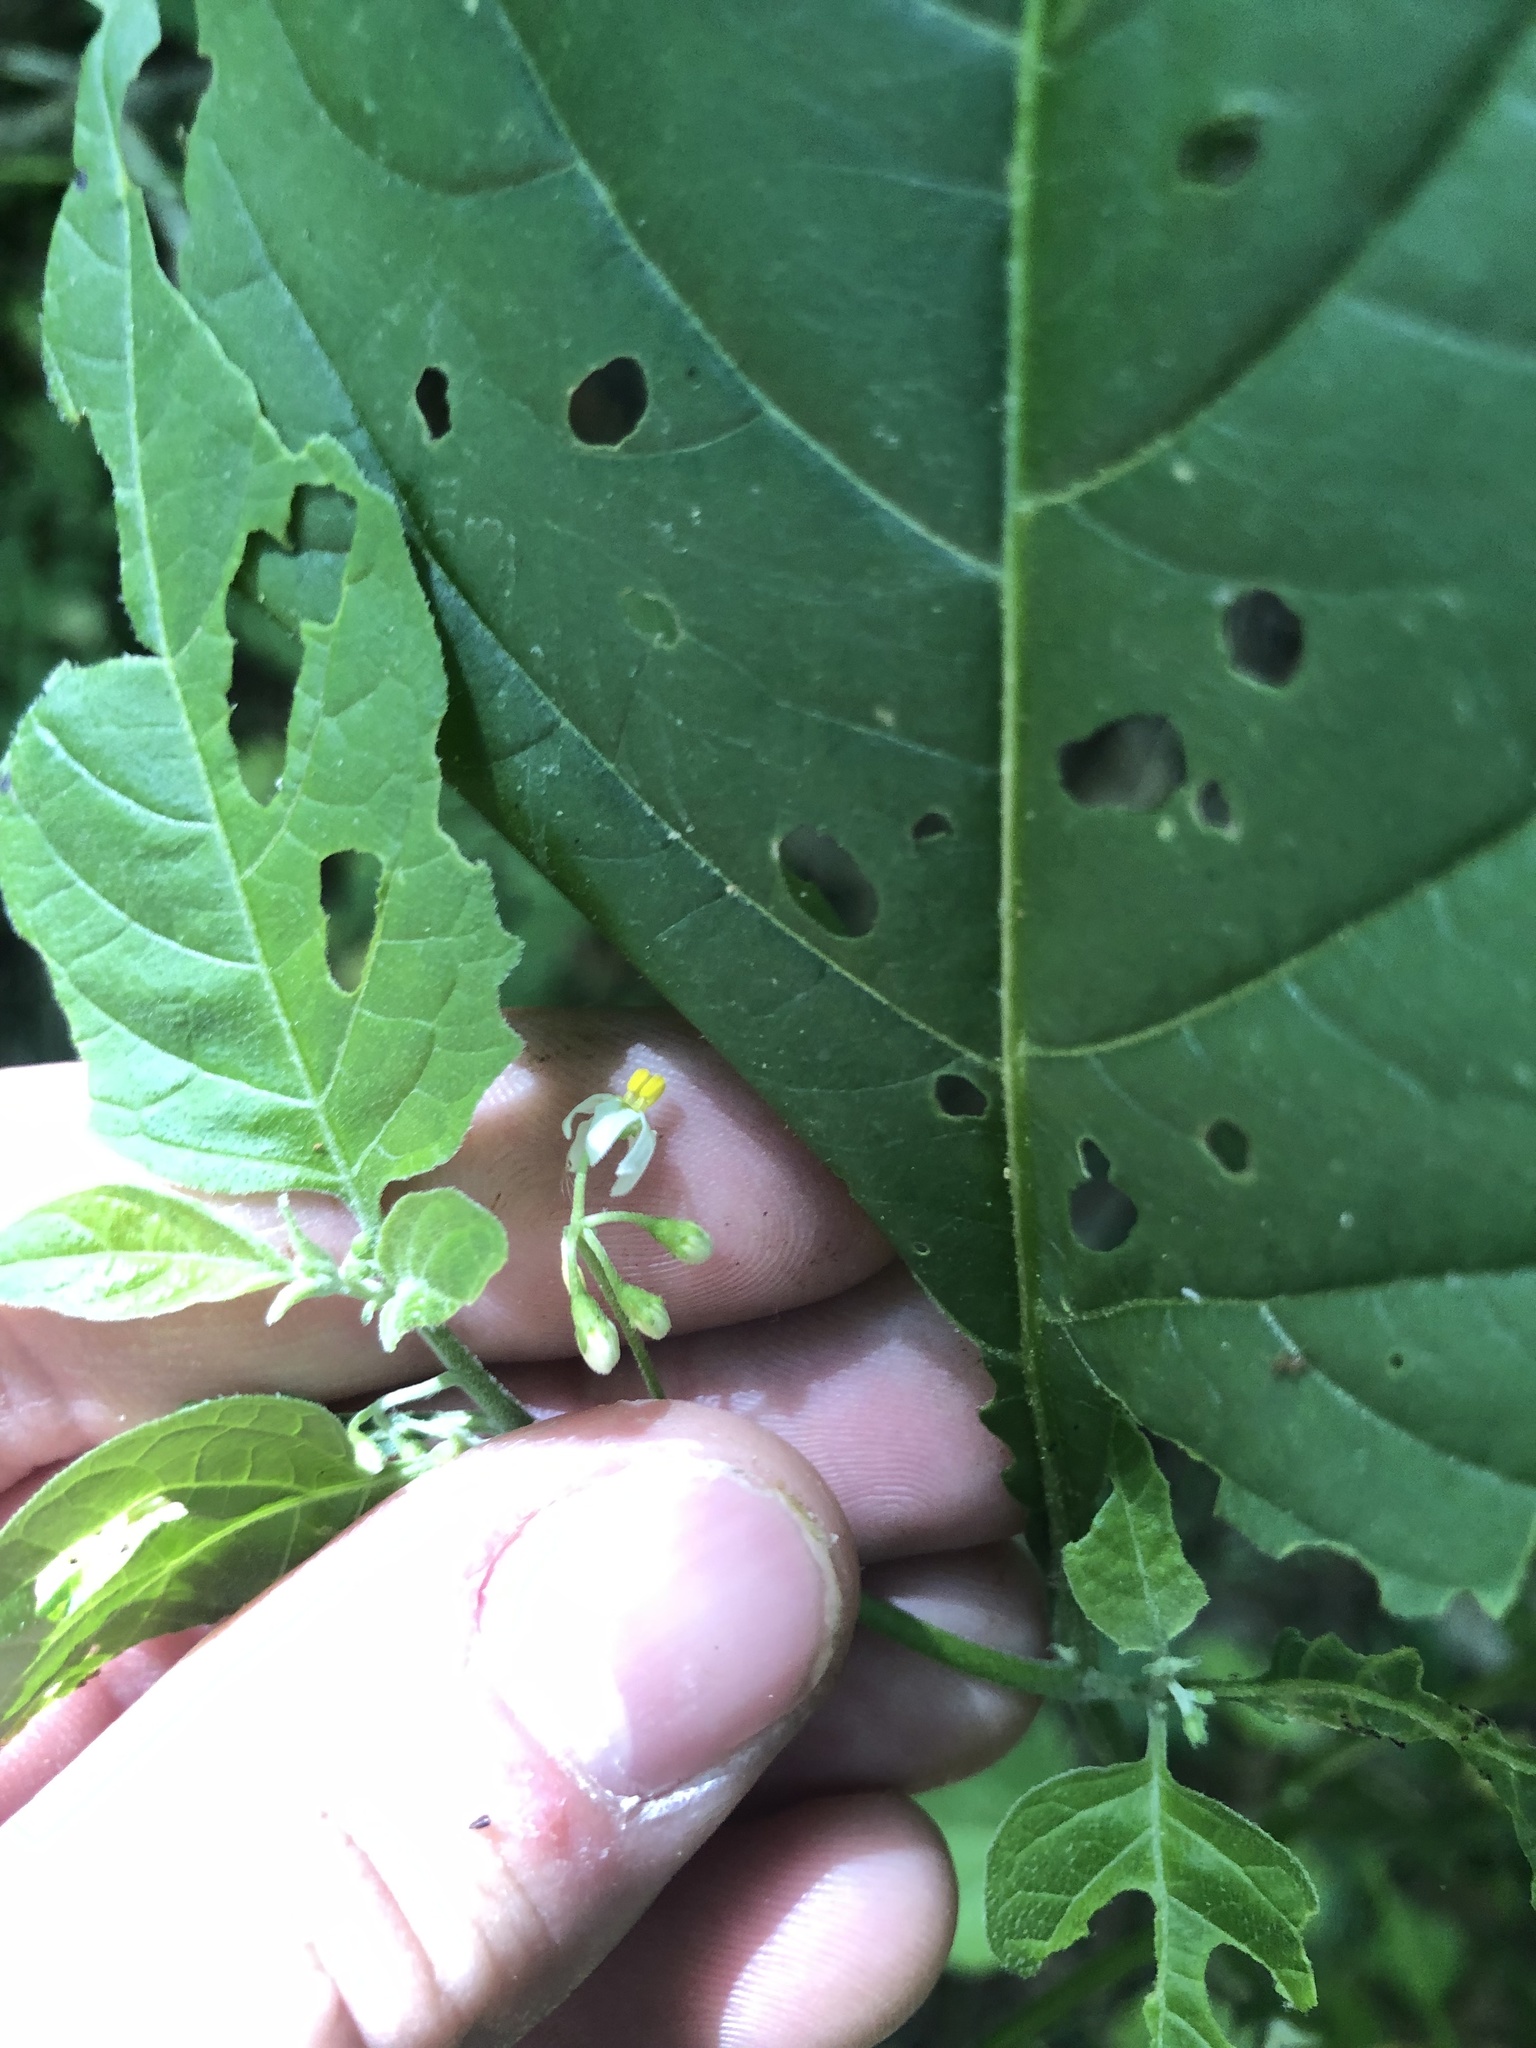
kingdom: Plantae
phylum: Tracheophyta
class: Magnoliopsida
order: Solanales
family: Solanaceae
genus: Solanum
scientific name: Solanum emulans
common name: Eastern black nightshade
